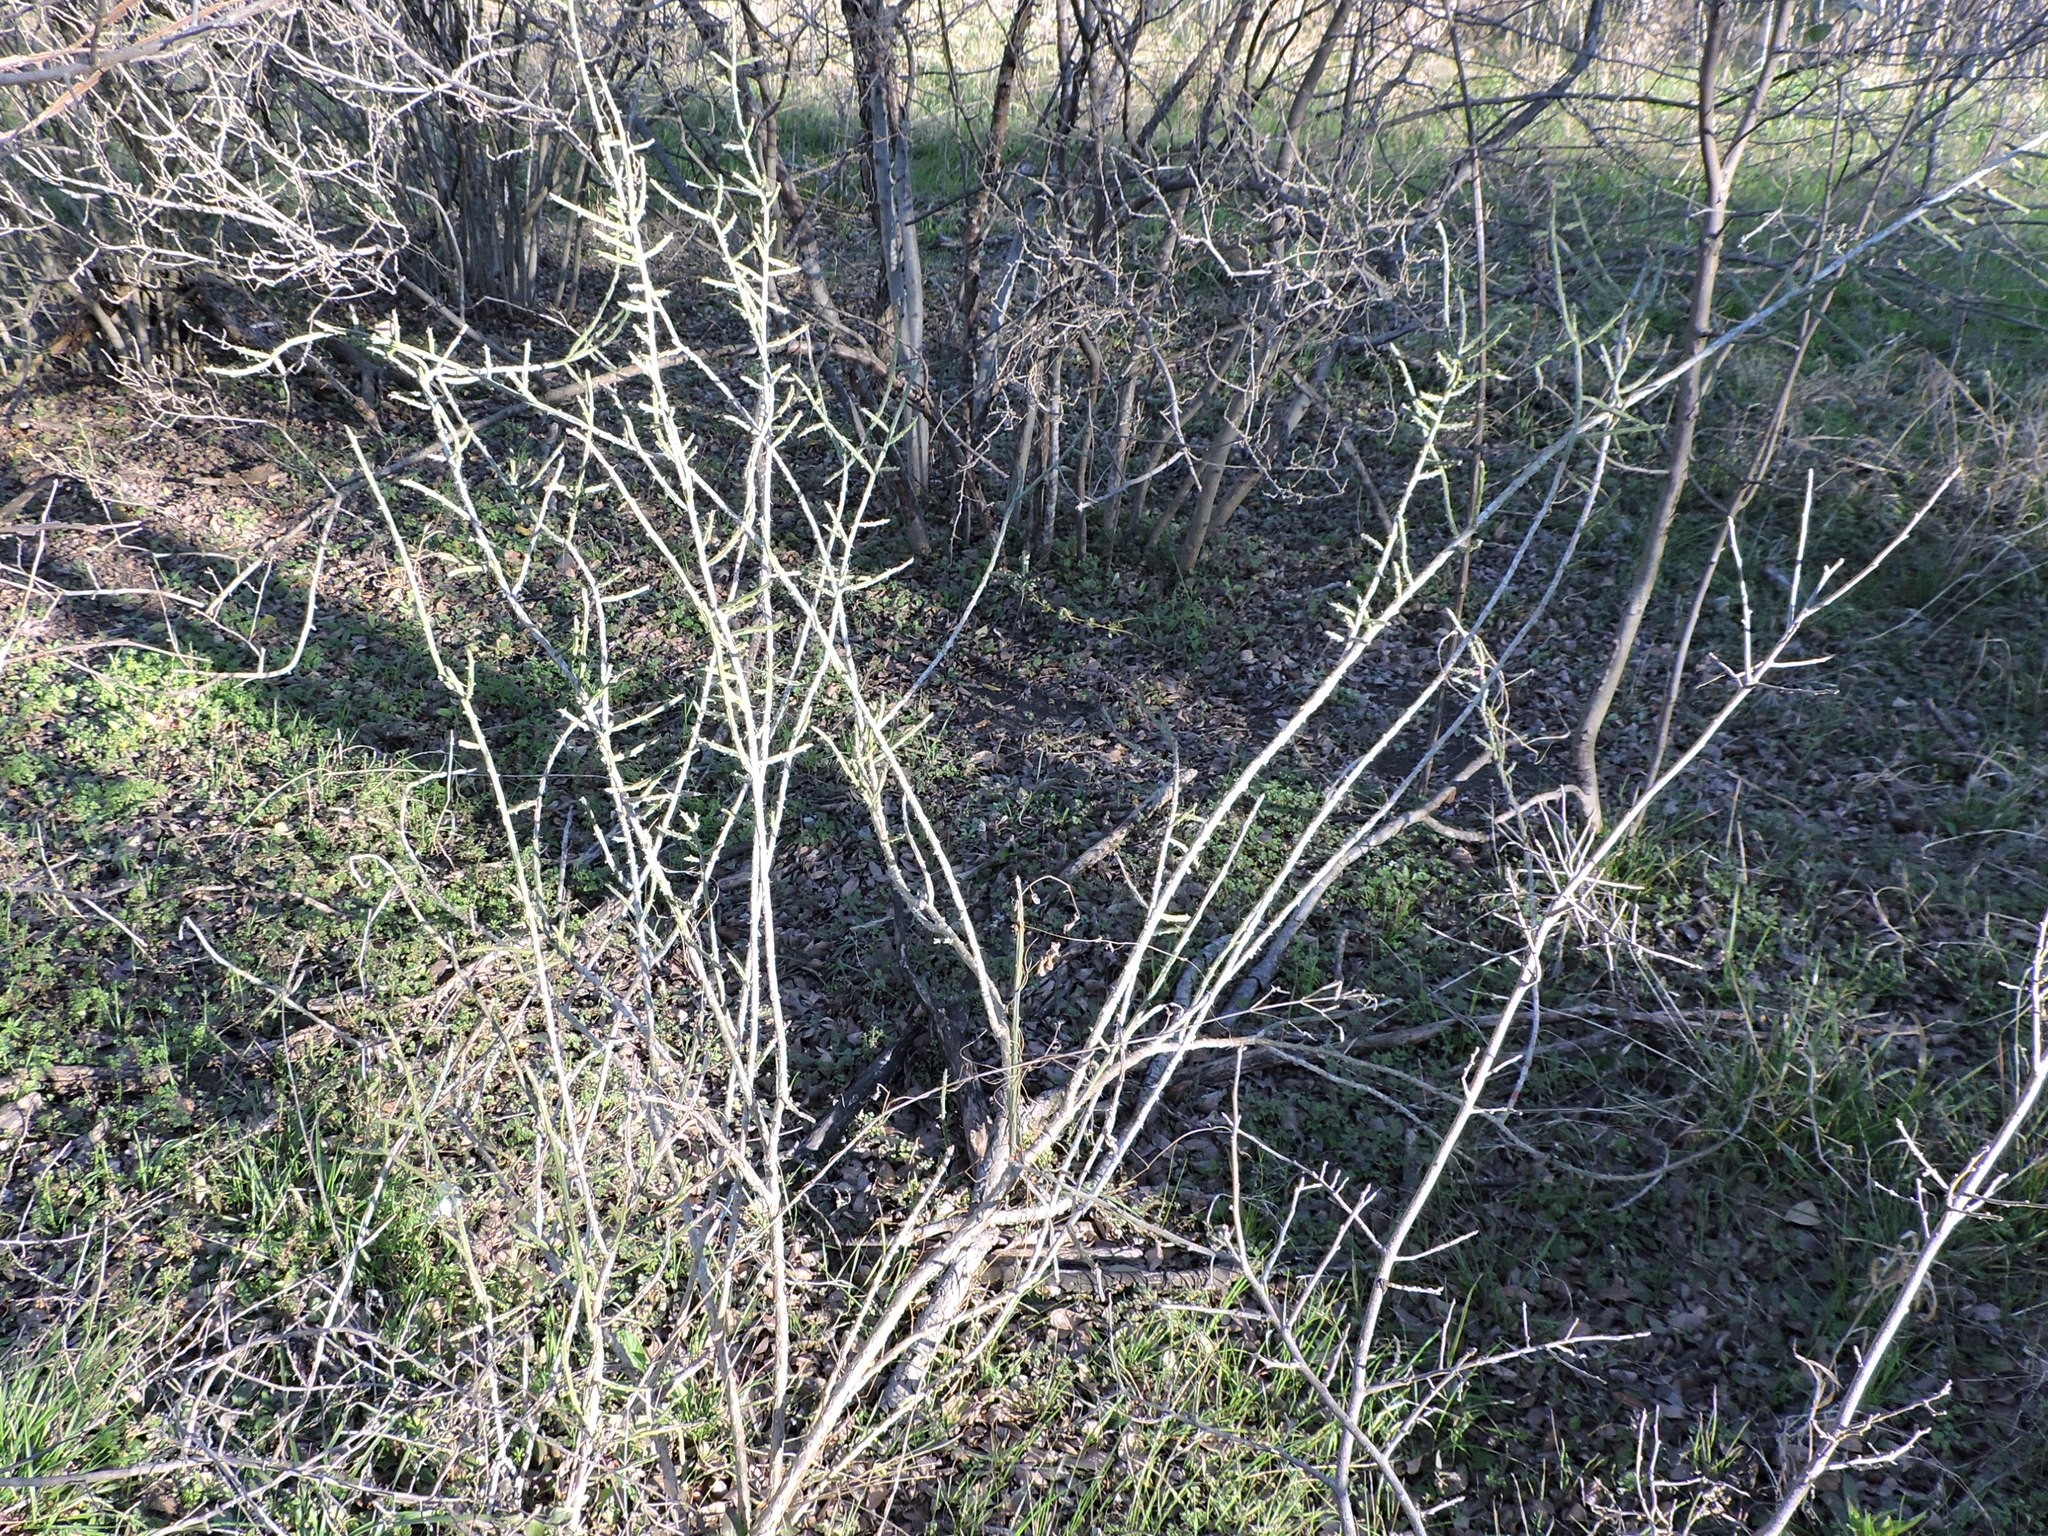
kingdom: Plantae
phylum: Tracheophyta
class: Magnoliopsida
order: Caryophyllales
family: Cactaceae
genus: Cylindropuntia
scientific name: Cylindropuntia leptocaulis
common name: Christmas cactus
